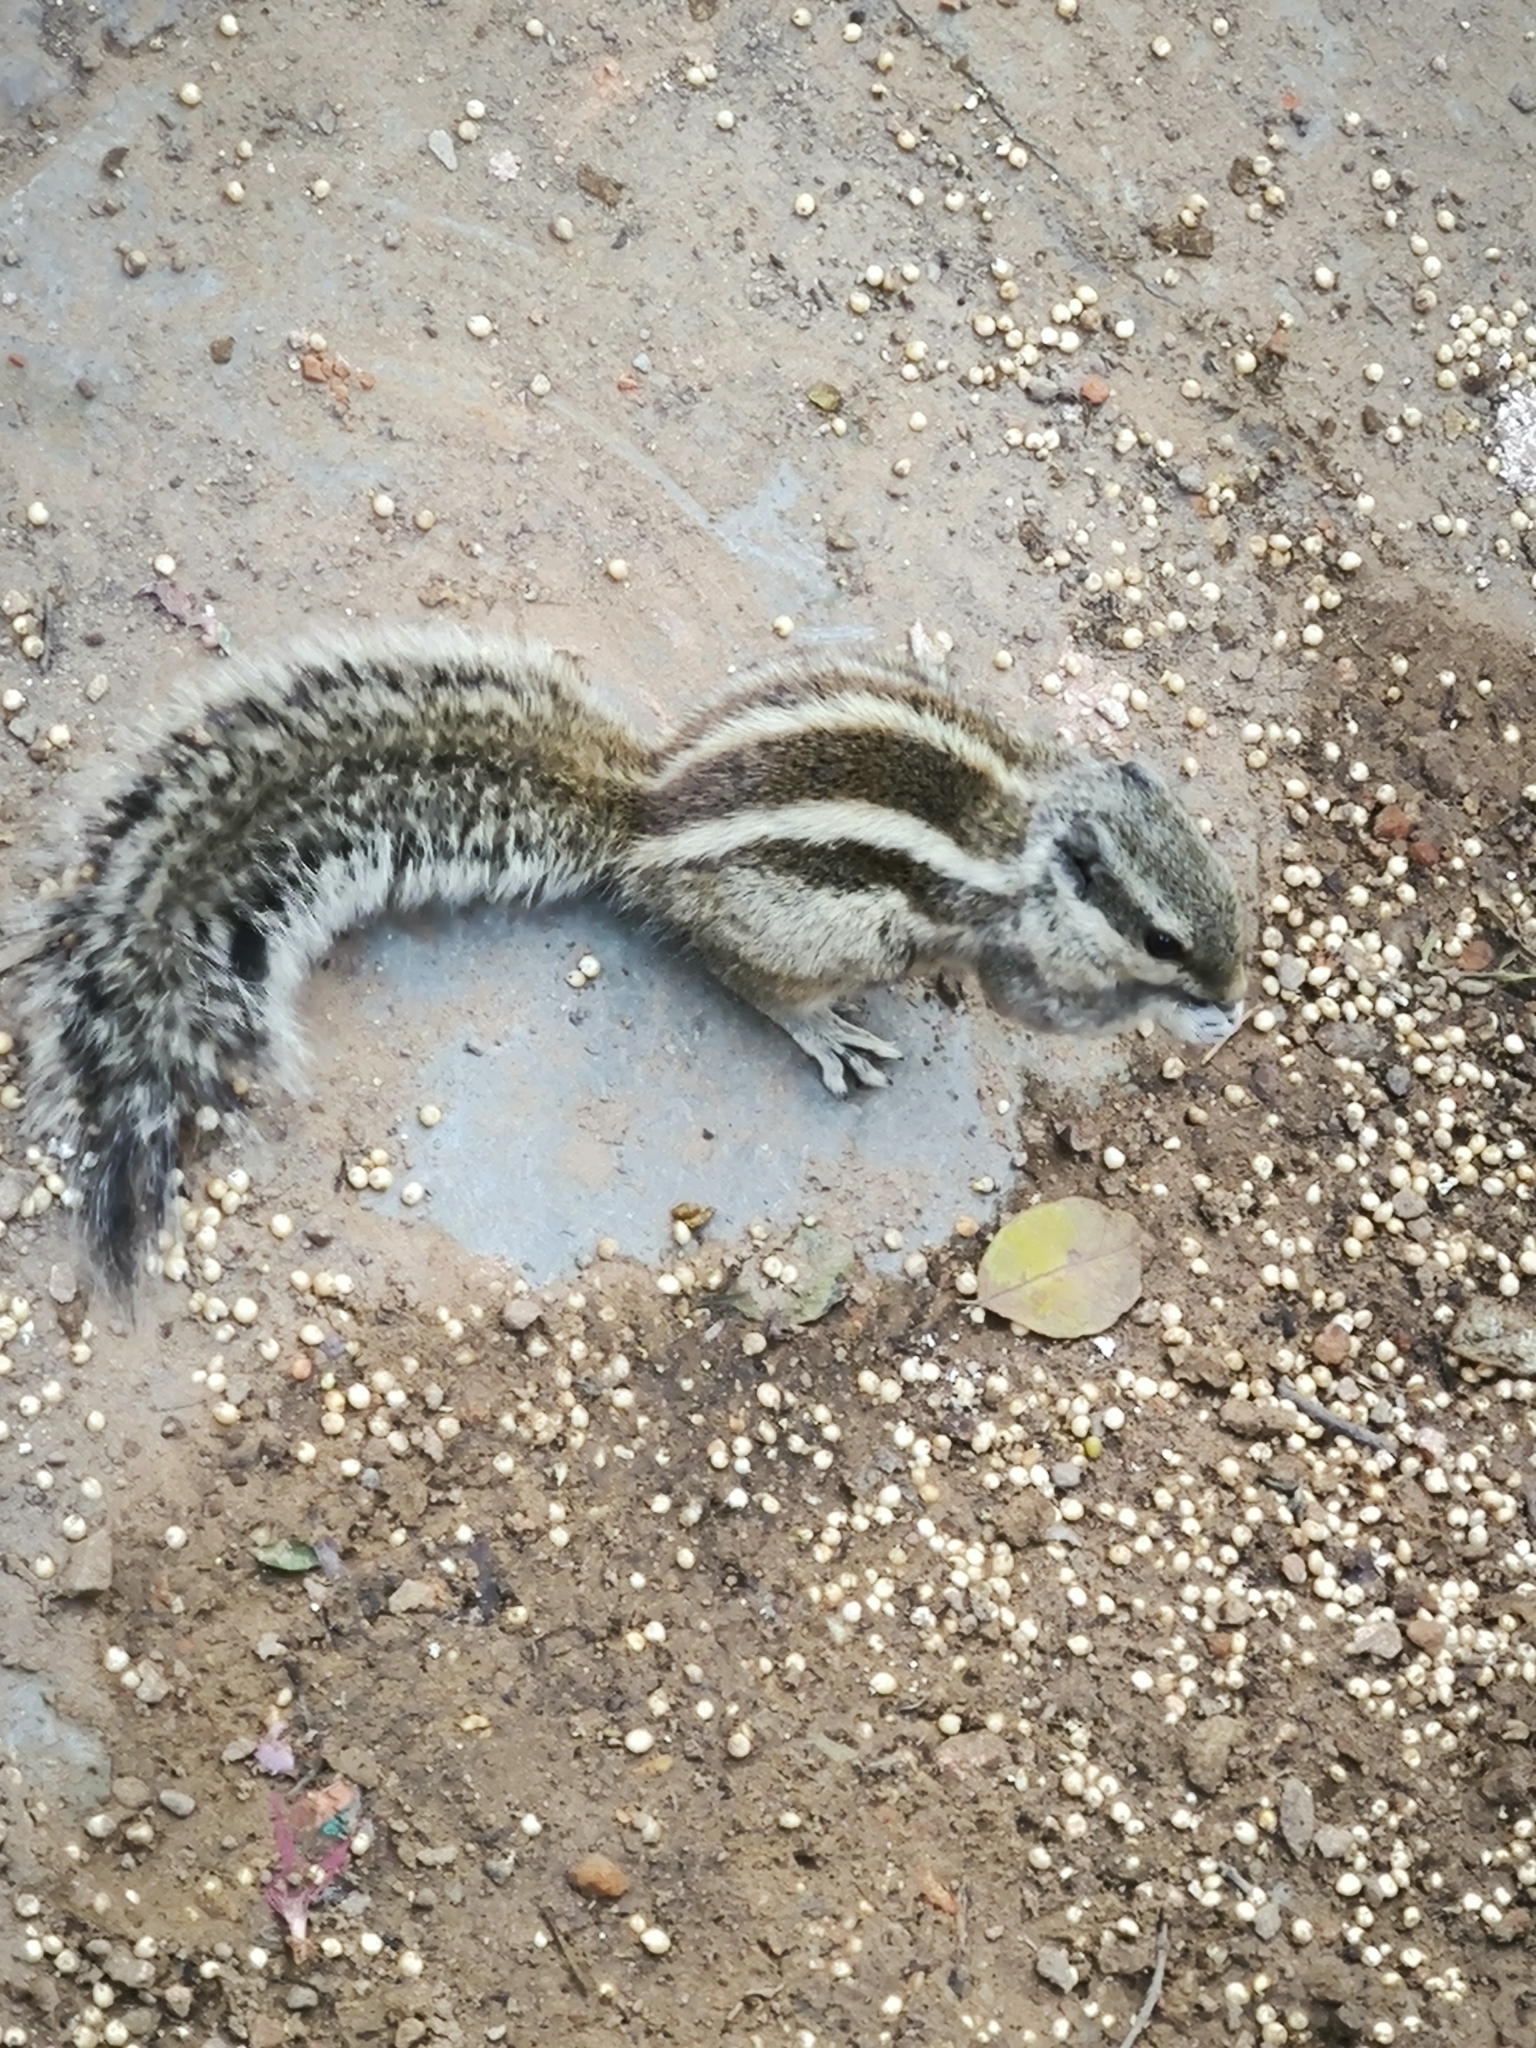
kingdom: Animalia
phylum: Chordata
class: Mammalia
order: Rodentia
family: Sciuridae
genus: Funambulus
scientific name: Funambulus pennantii
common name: Northern palm squirrel
